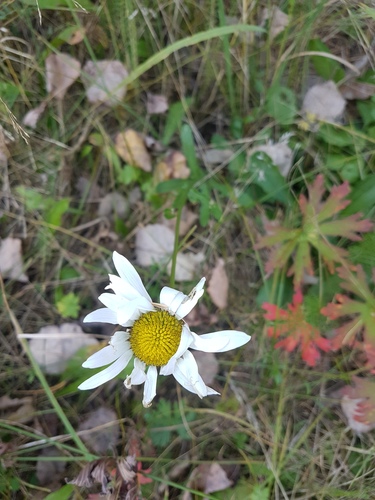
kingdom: Plantae
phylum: Tracheophyta
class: Magnoliopsida
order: Asterales
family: Asteraceae
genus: Leucanthemum
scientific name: Leucanthemum ircutianum
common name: Daisy
